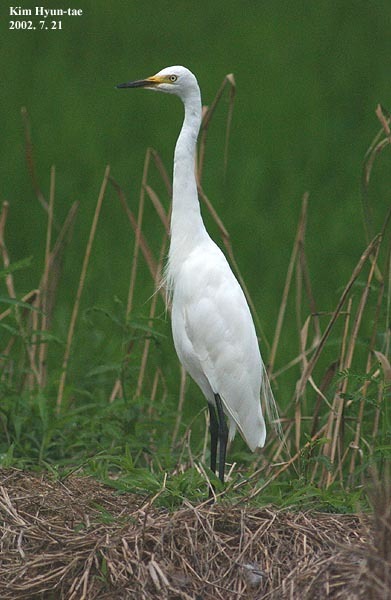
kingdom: Animalia
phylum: Chordata
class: Aves
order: Pelecaniformes
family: Ardeidae
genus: Egretta
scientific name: Egretta intermedia
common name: Intermediate egret
